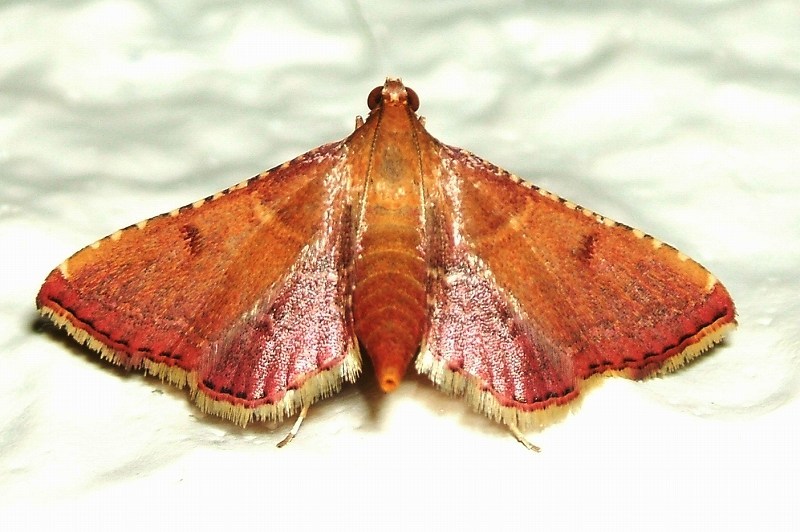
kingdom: Animalia
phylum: Arthropoda
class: Insecta
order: Lepidoptera
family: Pyralidae
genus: Endotricha
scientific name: Endotricha olivacealis
